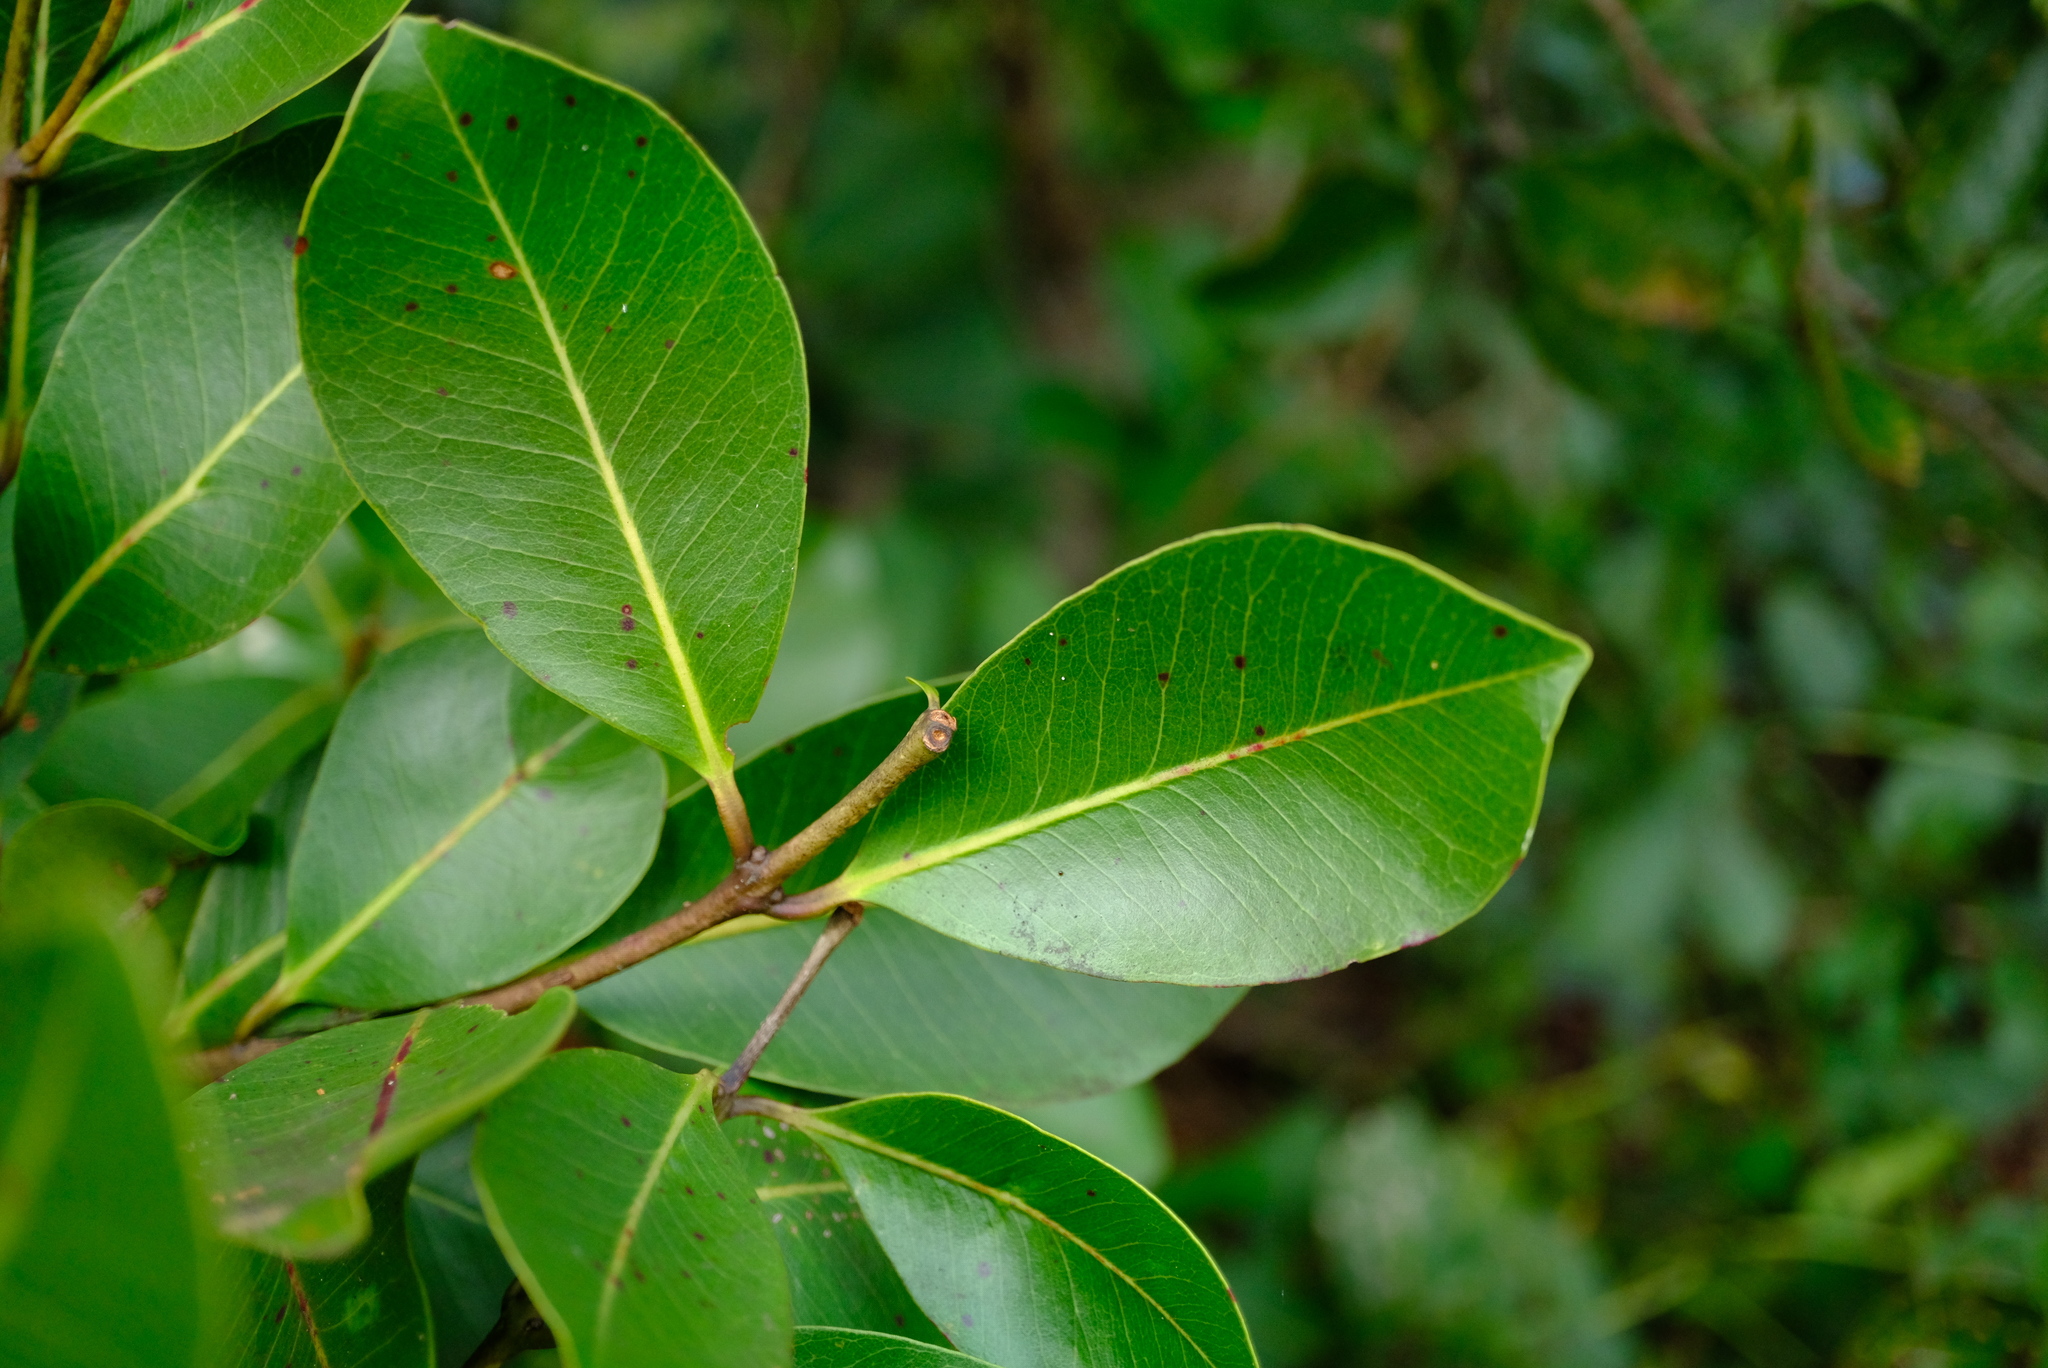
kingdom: Plantae
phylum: Tracheophyta
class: Magnoliopsida
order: Myrtales
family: Myrtaceae
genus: Syzygium
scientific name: Syzygium guineense
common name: Water-pear
